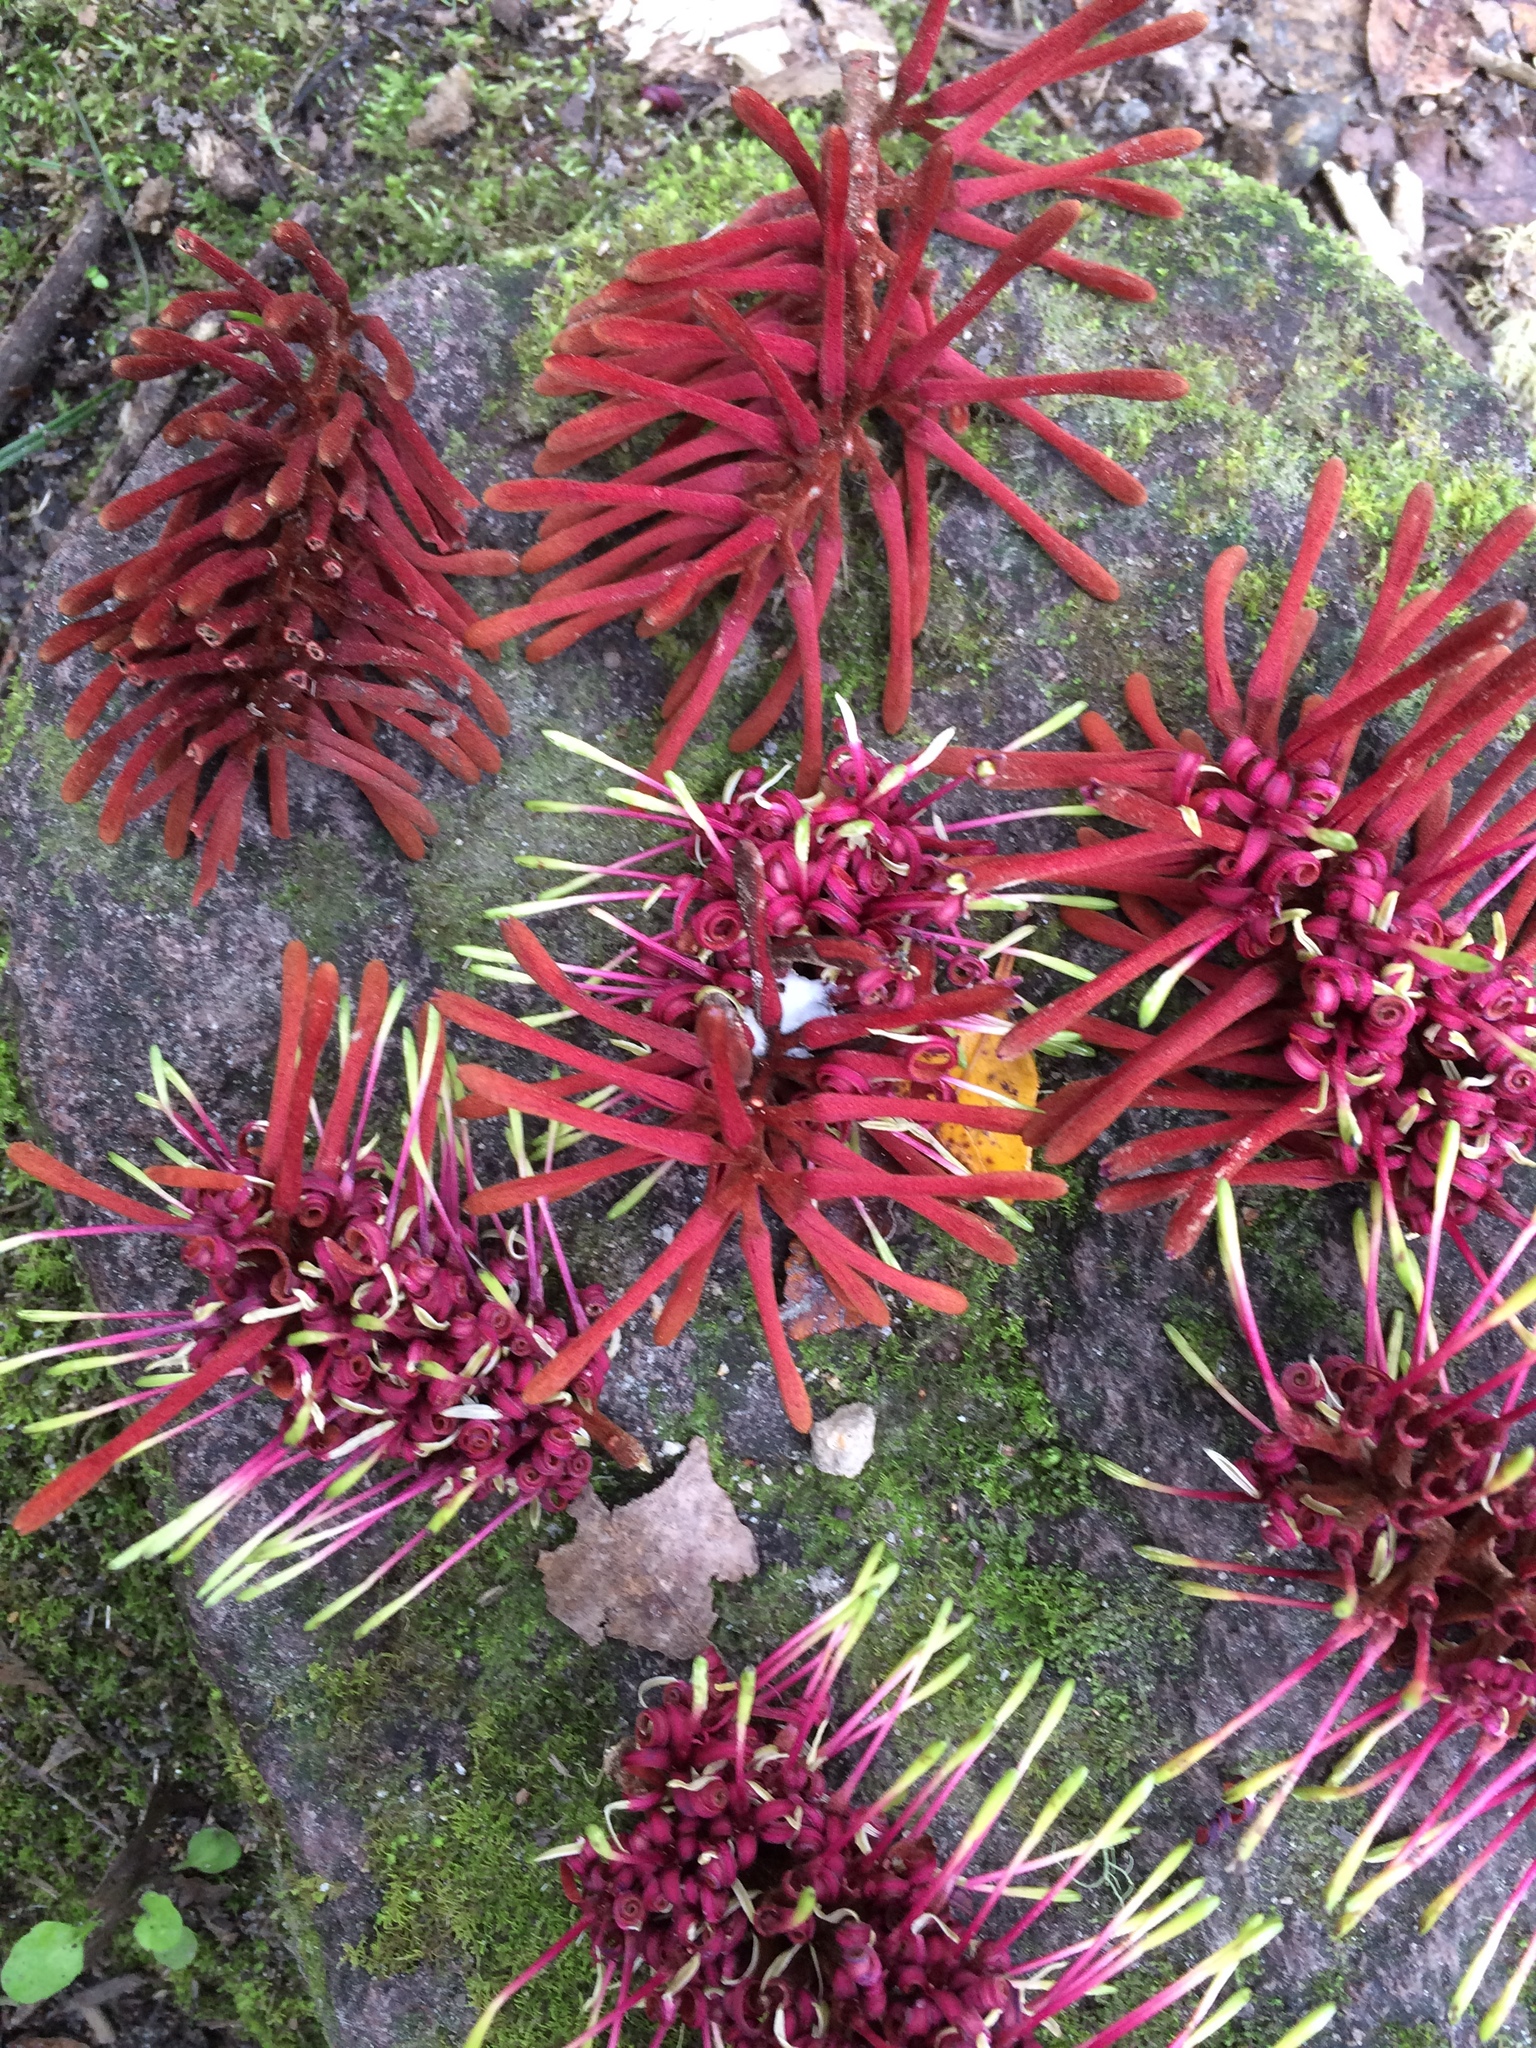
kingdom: Plantae
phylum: Tracheophyta
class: Magnoliopsida
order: Proteales
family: Proteaceae
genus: Knightia
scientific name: Knightia excelsa
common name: New zealand-honeysuckle
